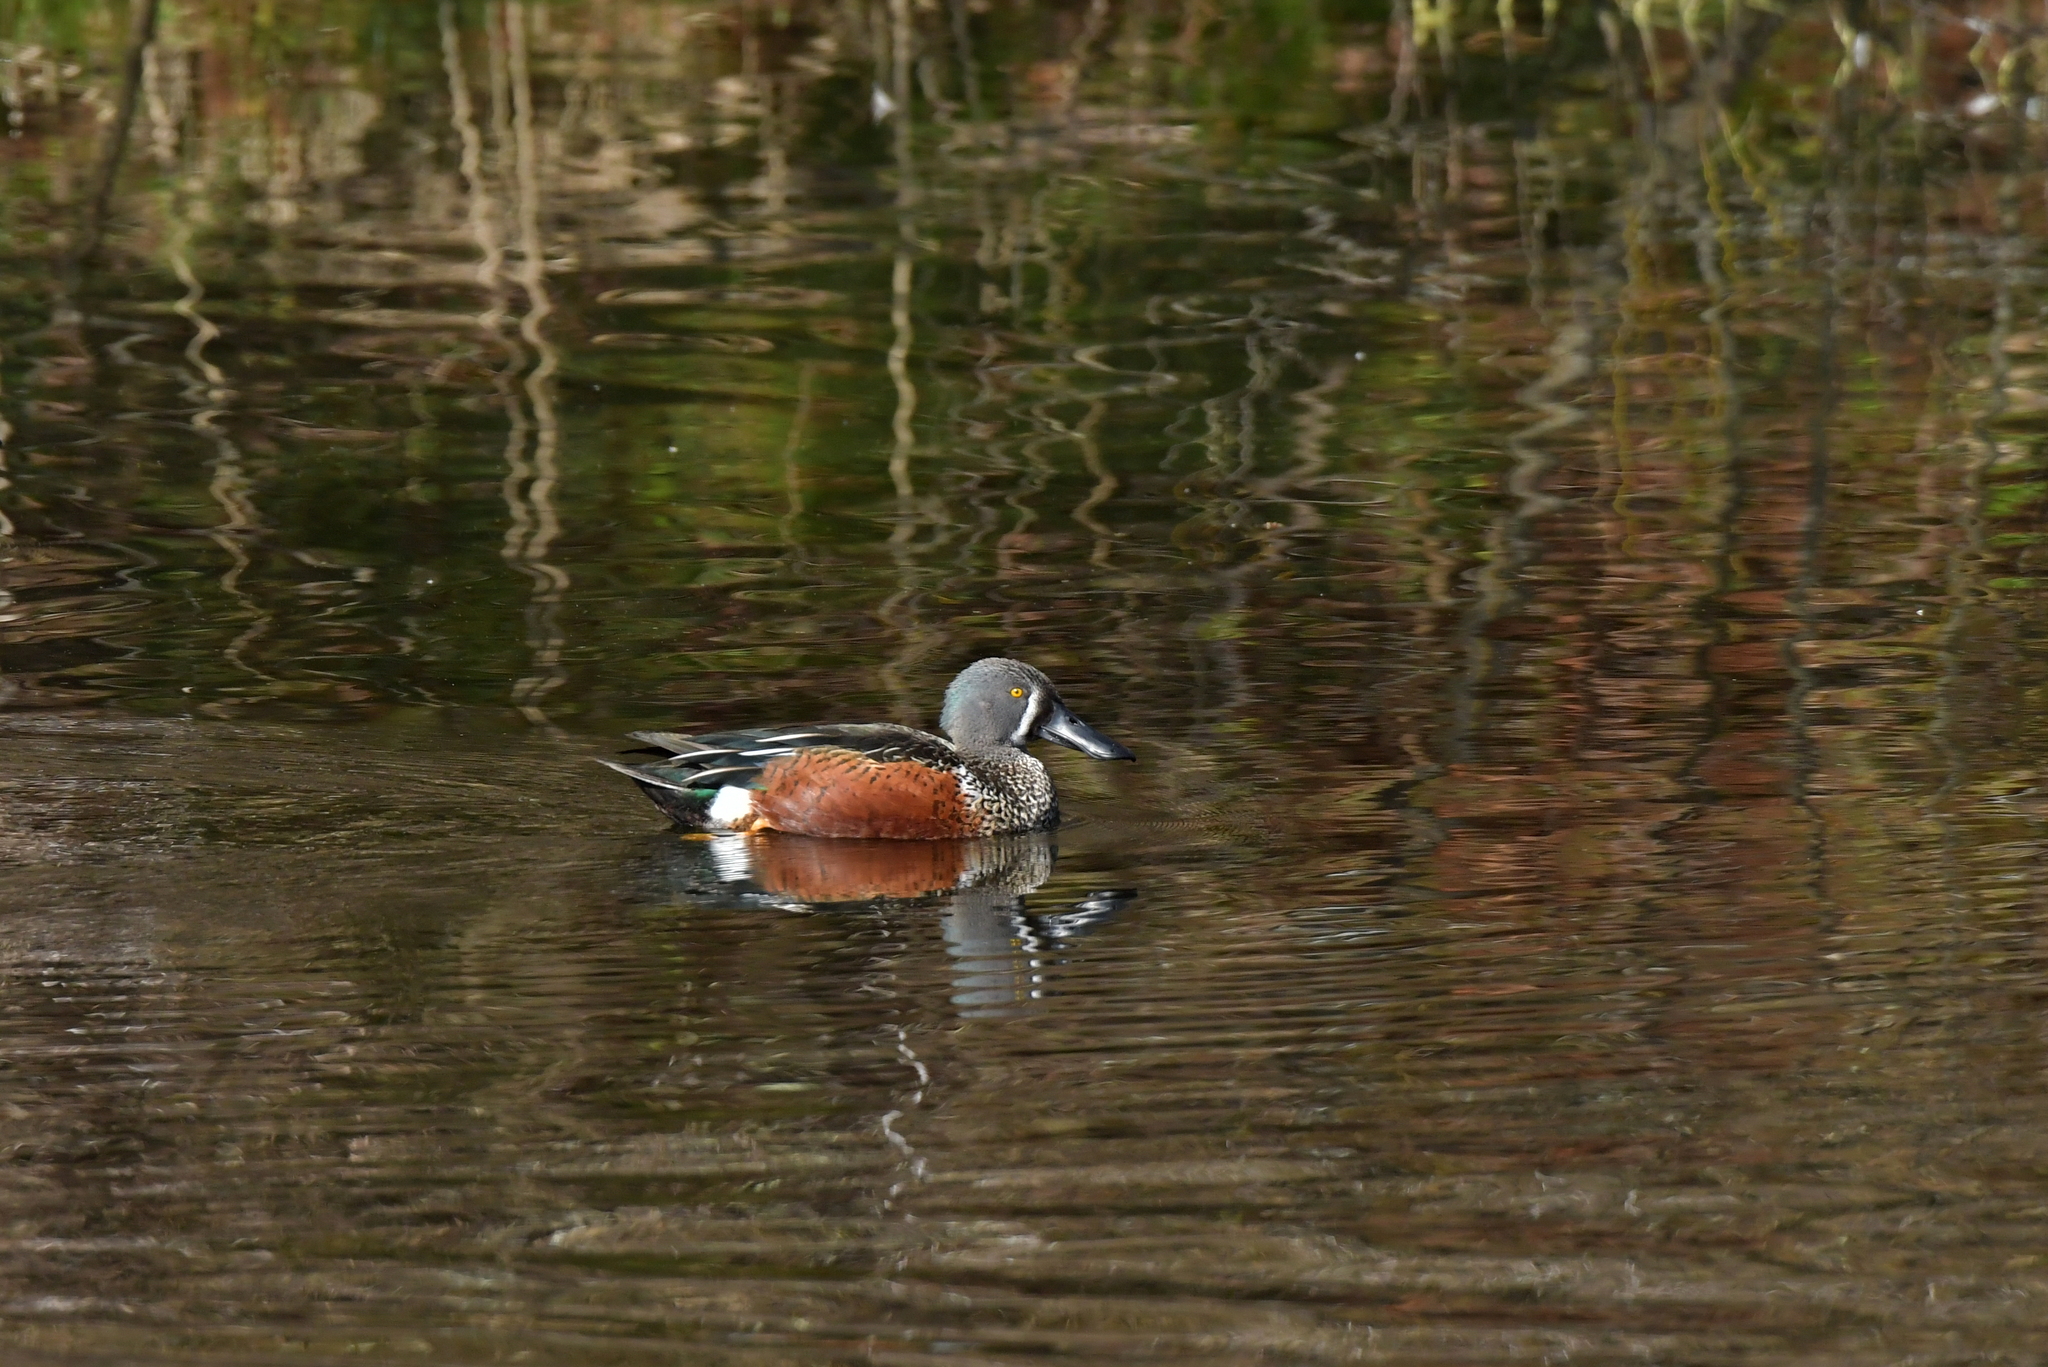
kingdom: Animalia
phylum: Chordata
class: Aves
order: Anseriformes
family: Anatidae
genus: Spatula
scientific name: Spatula rhynchotis
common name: Australian shoveler
